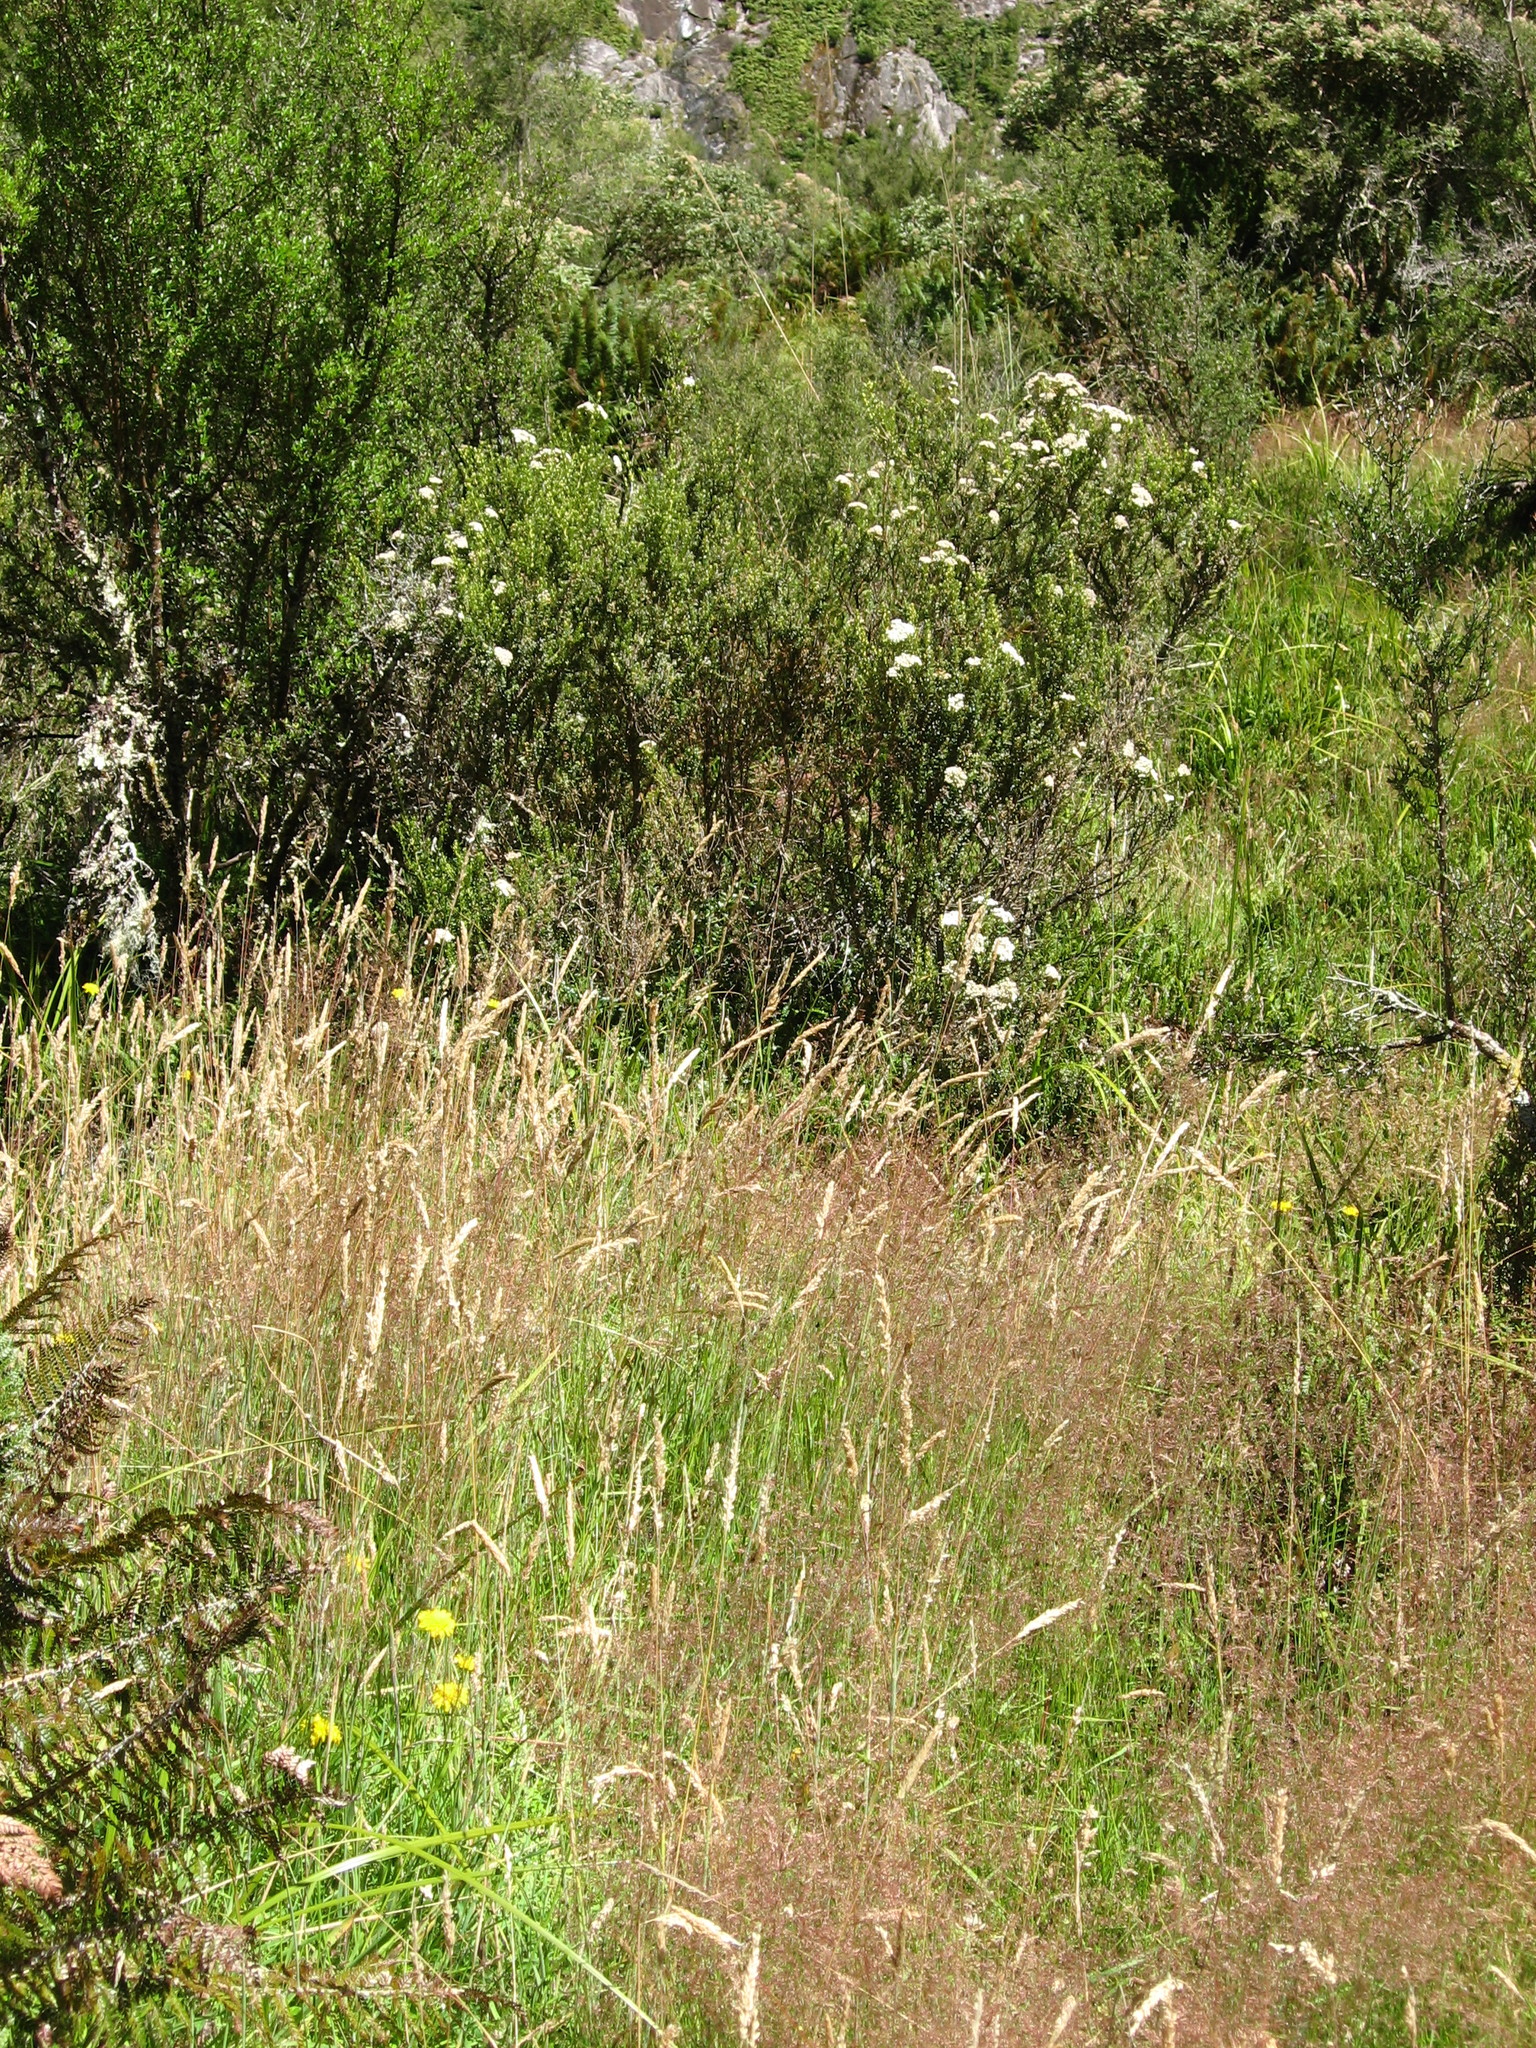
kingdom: Plantae
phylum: Tracheophyta
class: Liliopsida
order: Poales
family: Poaceae
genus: Agrostis
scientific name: Agrostis capillaris
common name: Colonial bentgrass
